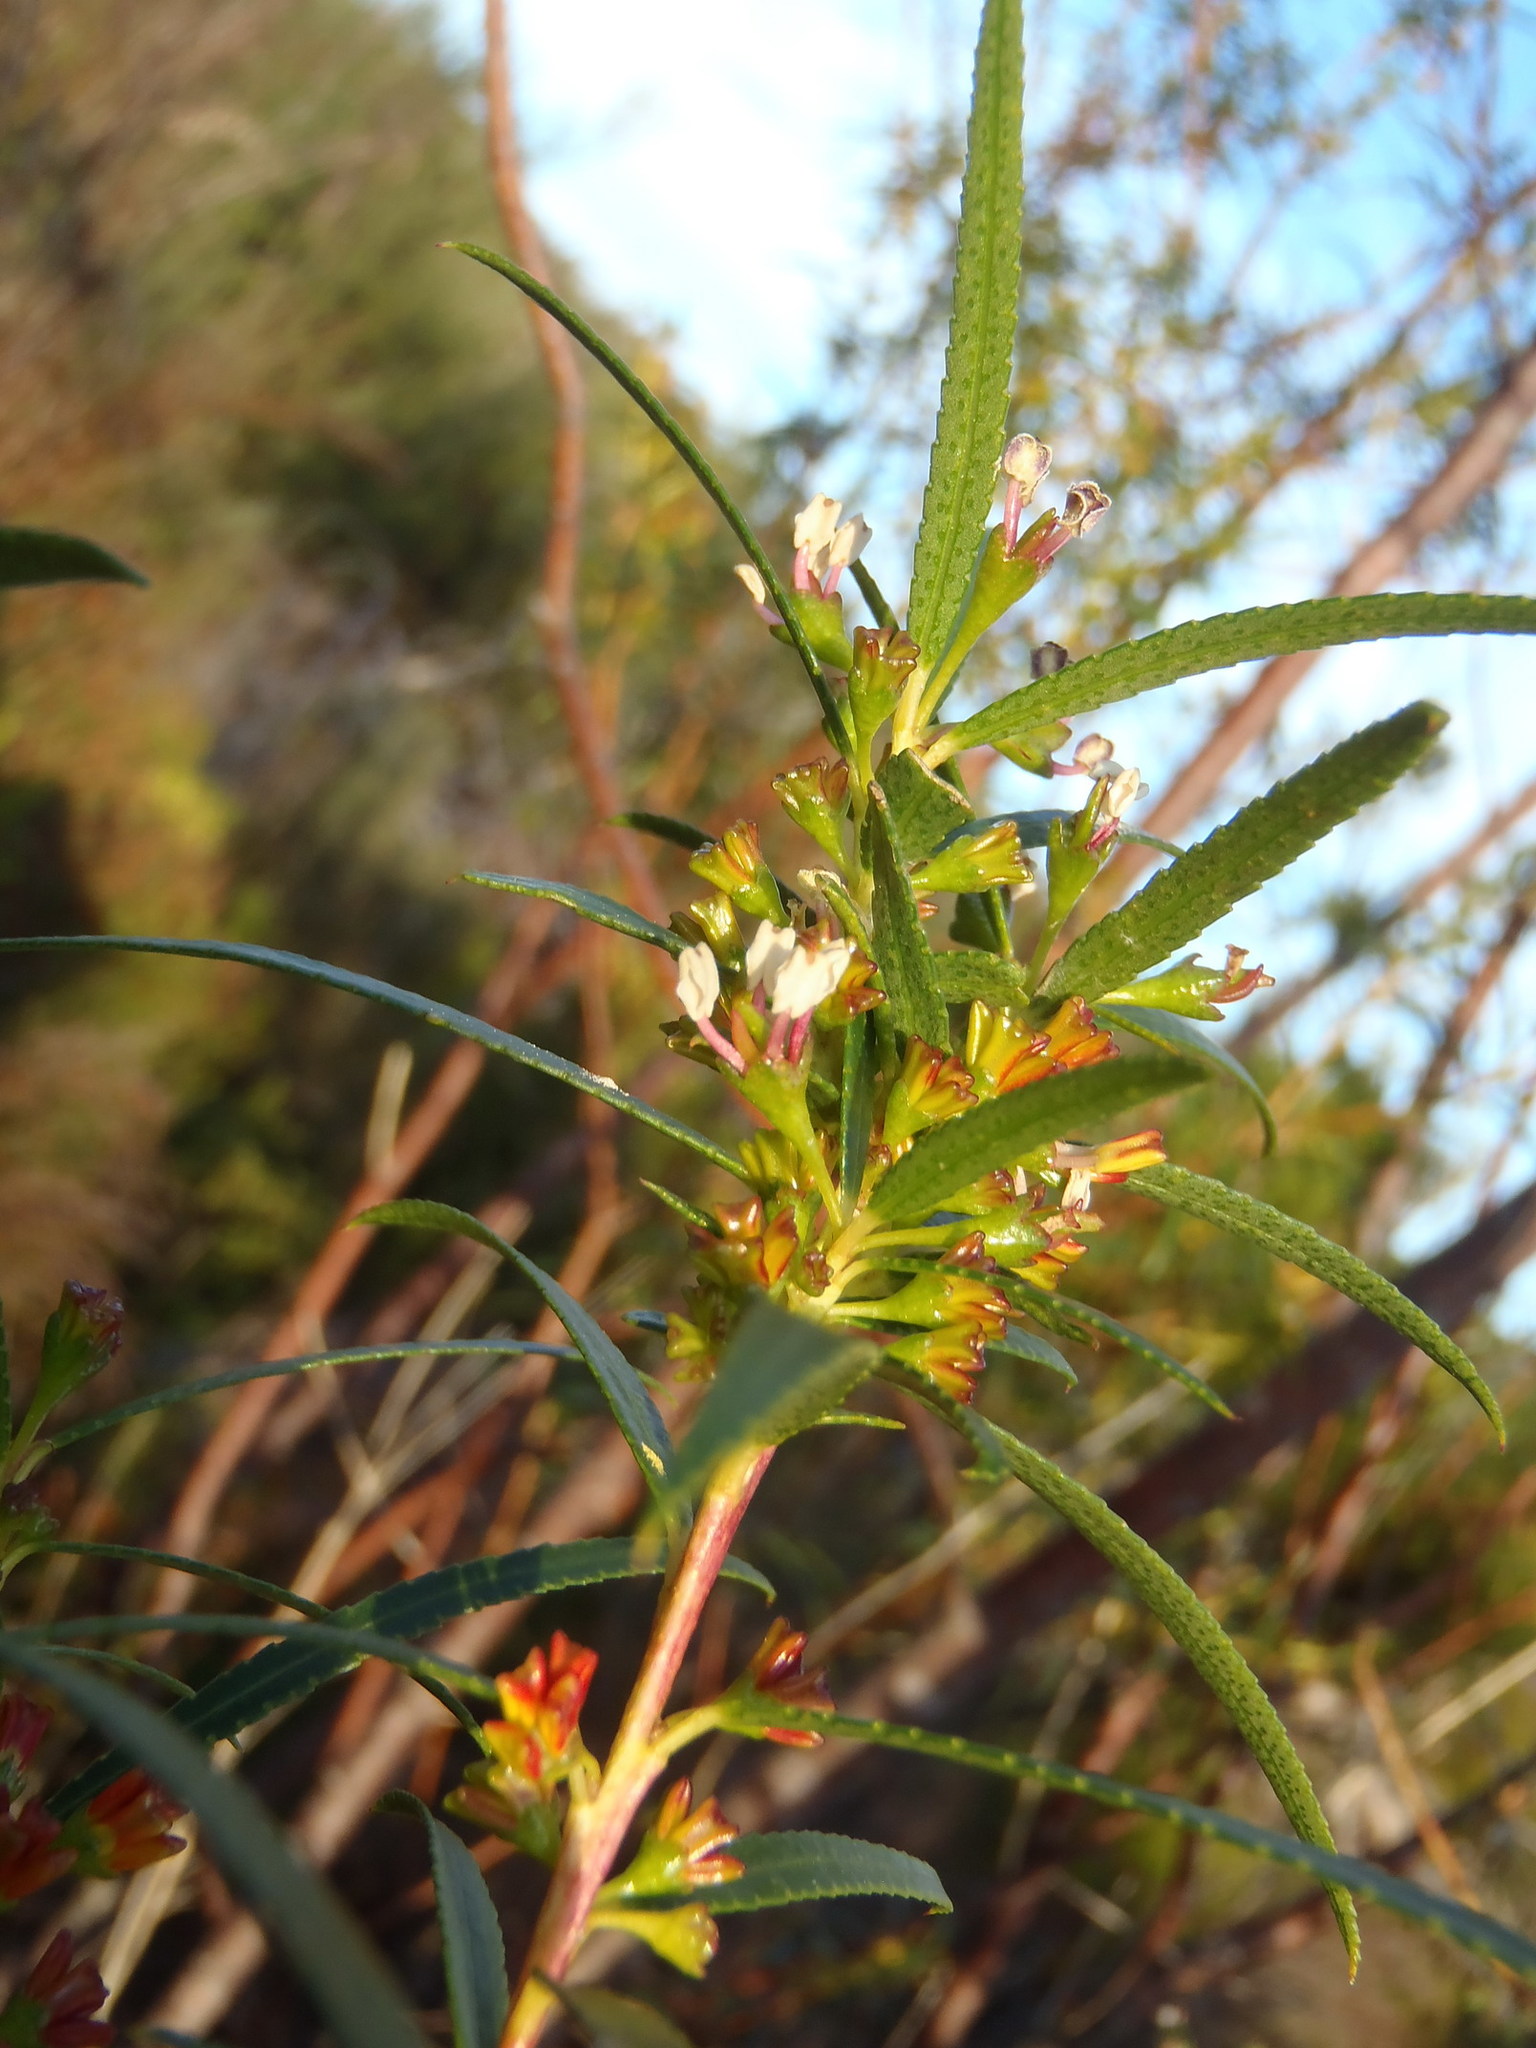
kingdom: Plantae
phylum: Tracheophyta
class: Magnoliopsida
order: Sapindales
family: Rutaceae
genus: Empleurum
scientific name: Empleurum unicapsulare
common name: False buchu
